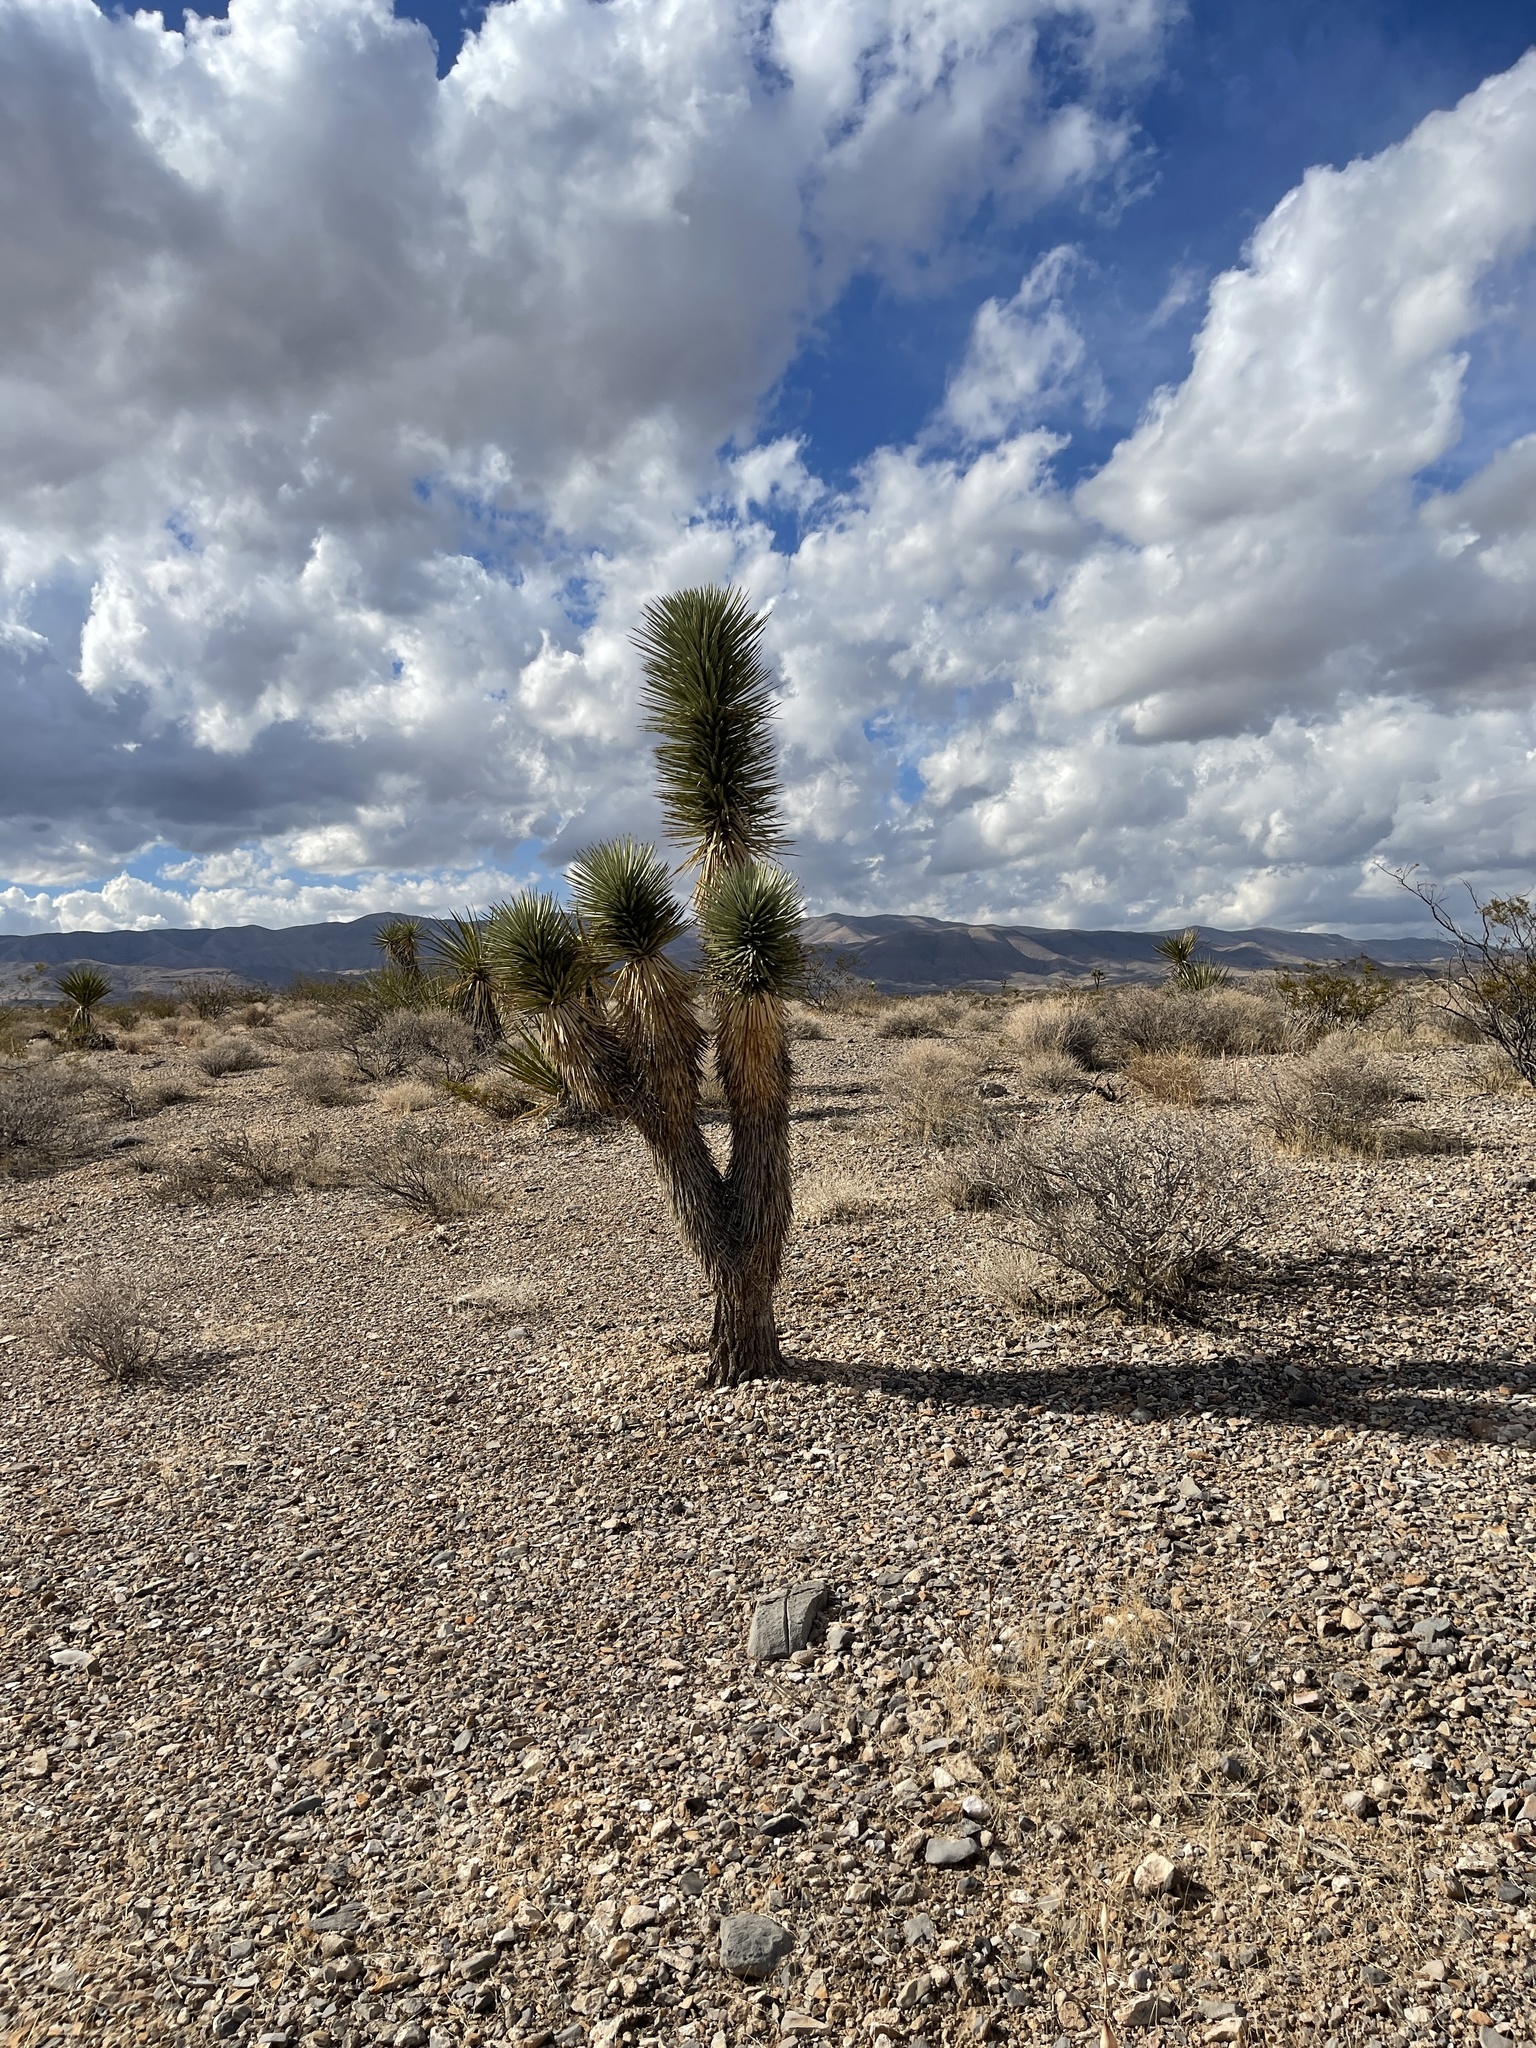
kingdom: Plantae
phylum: Tracheophyta
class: Liliopsida
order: Asparagales
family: Asparagaceae
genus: Yucca
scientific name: Yucca brevifolia
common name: Joshua tree
